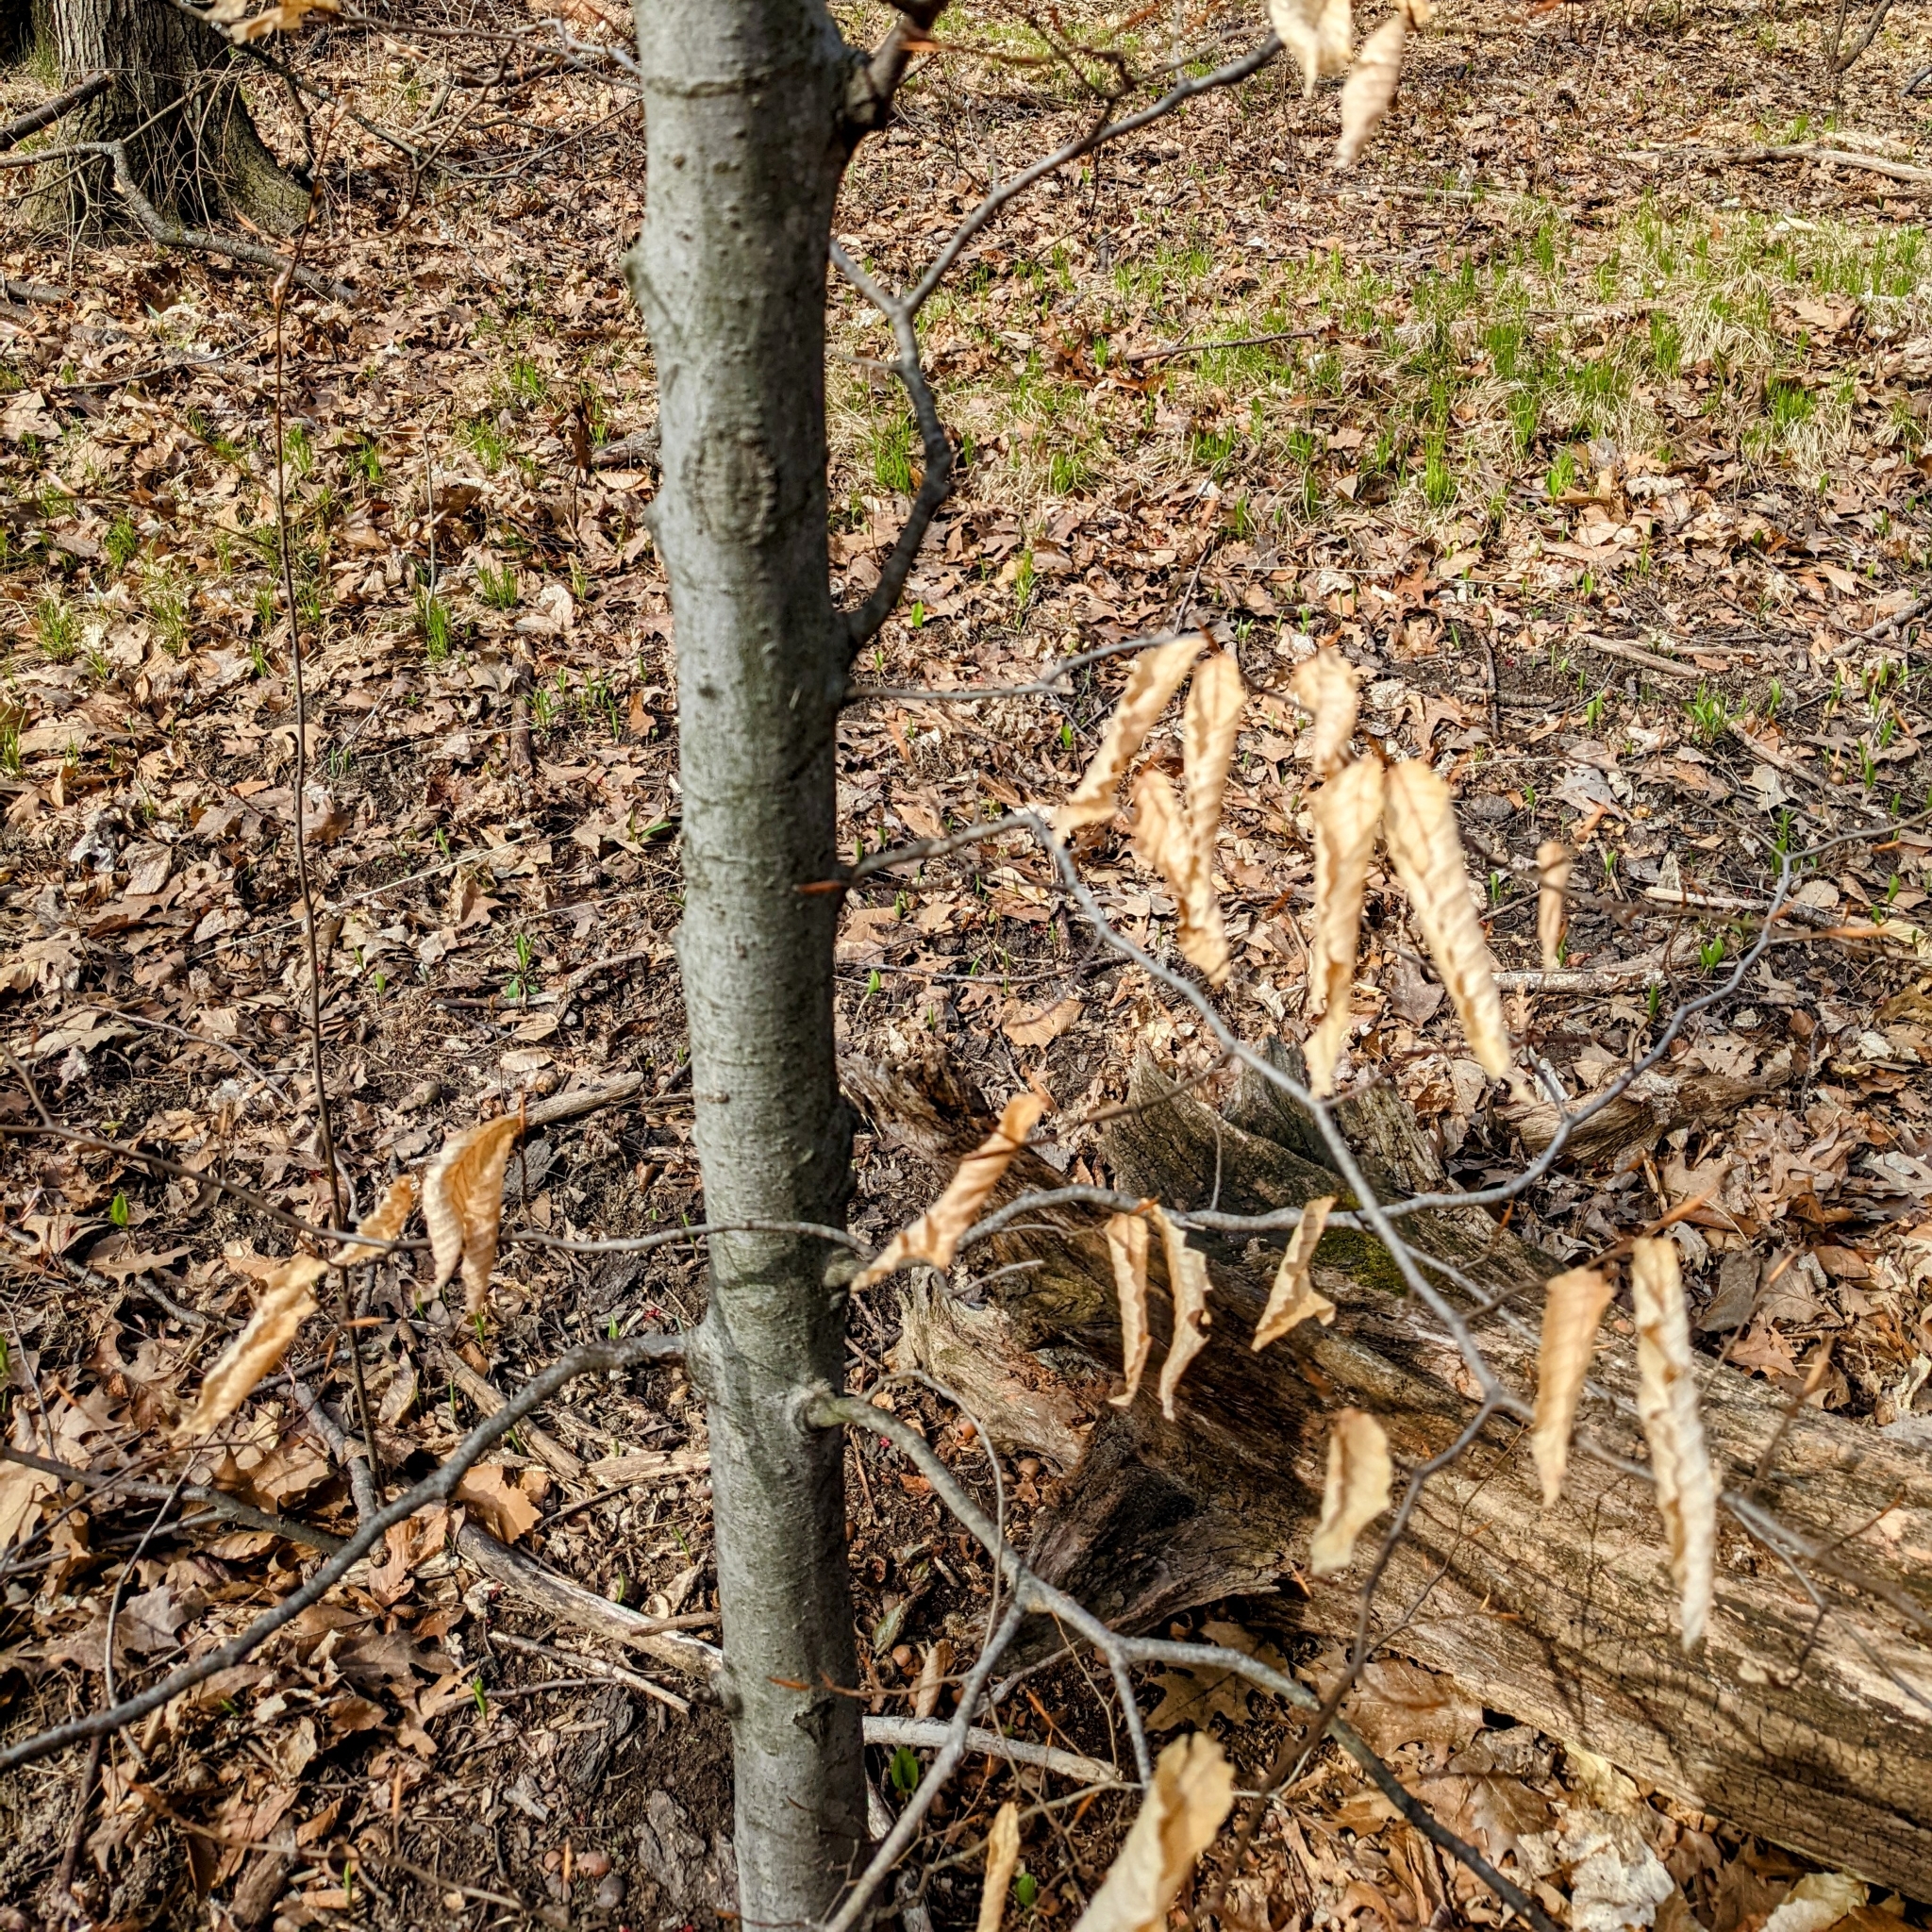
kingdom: Plantae
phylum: Tracheophyta
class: Magnoliopsida
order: Fagales
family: Fagaceae
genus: Fagus
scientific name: Fagus grandifolia
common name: American beech
